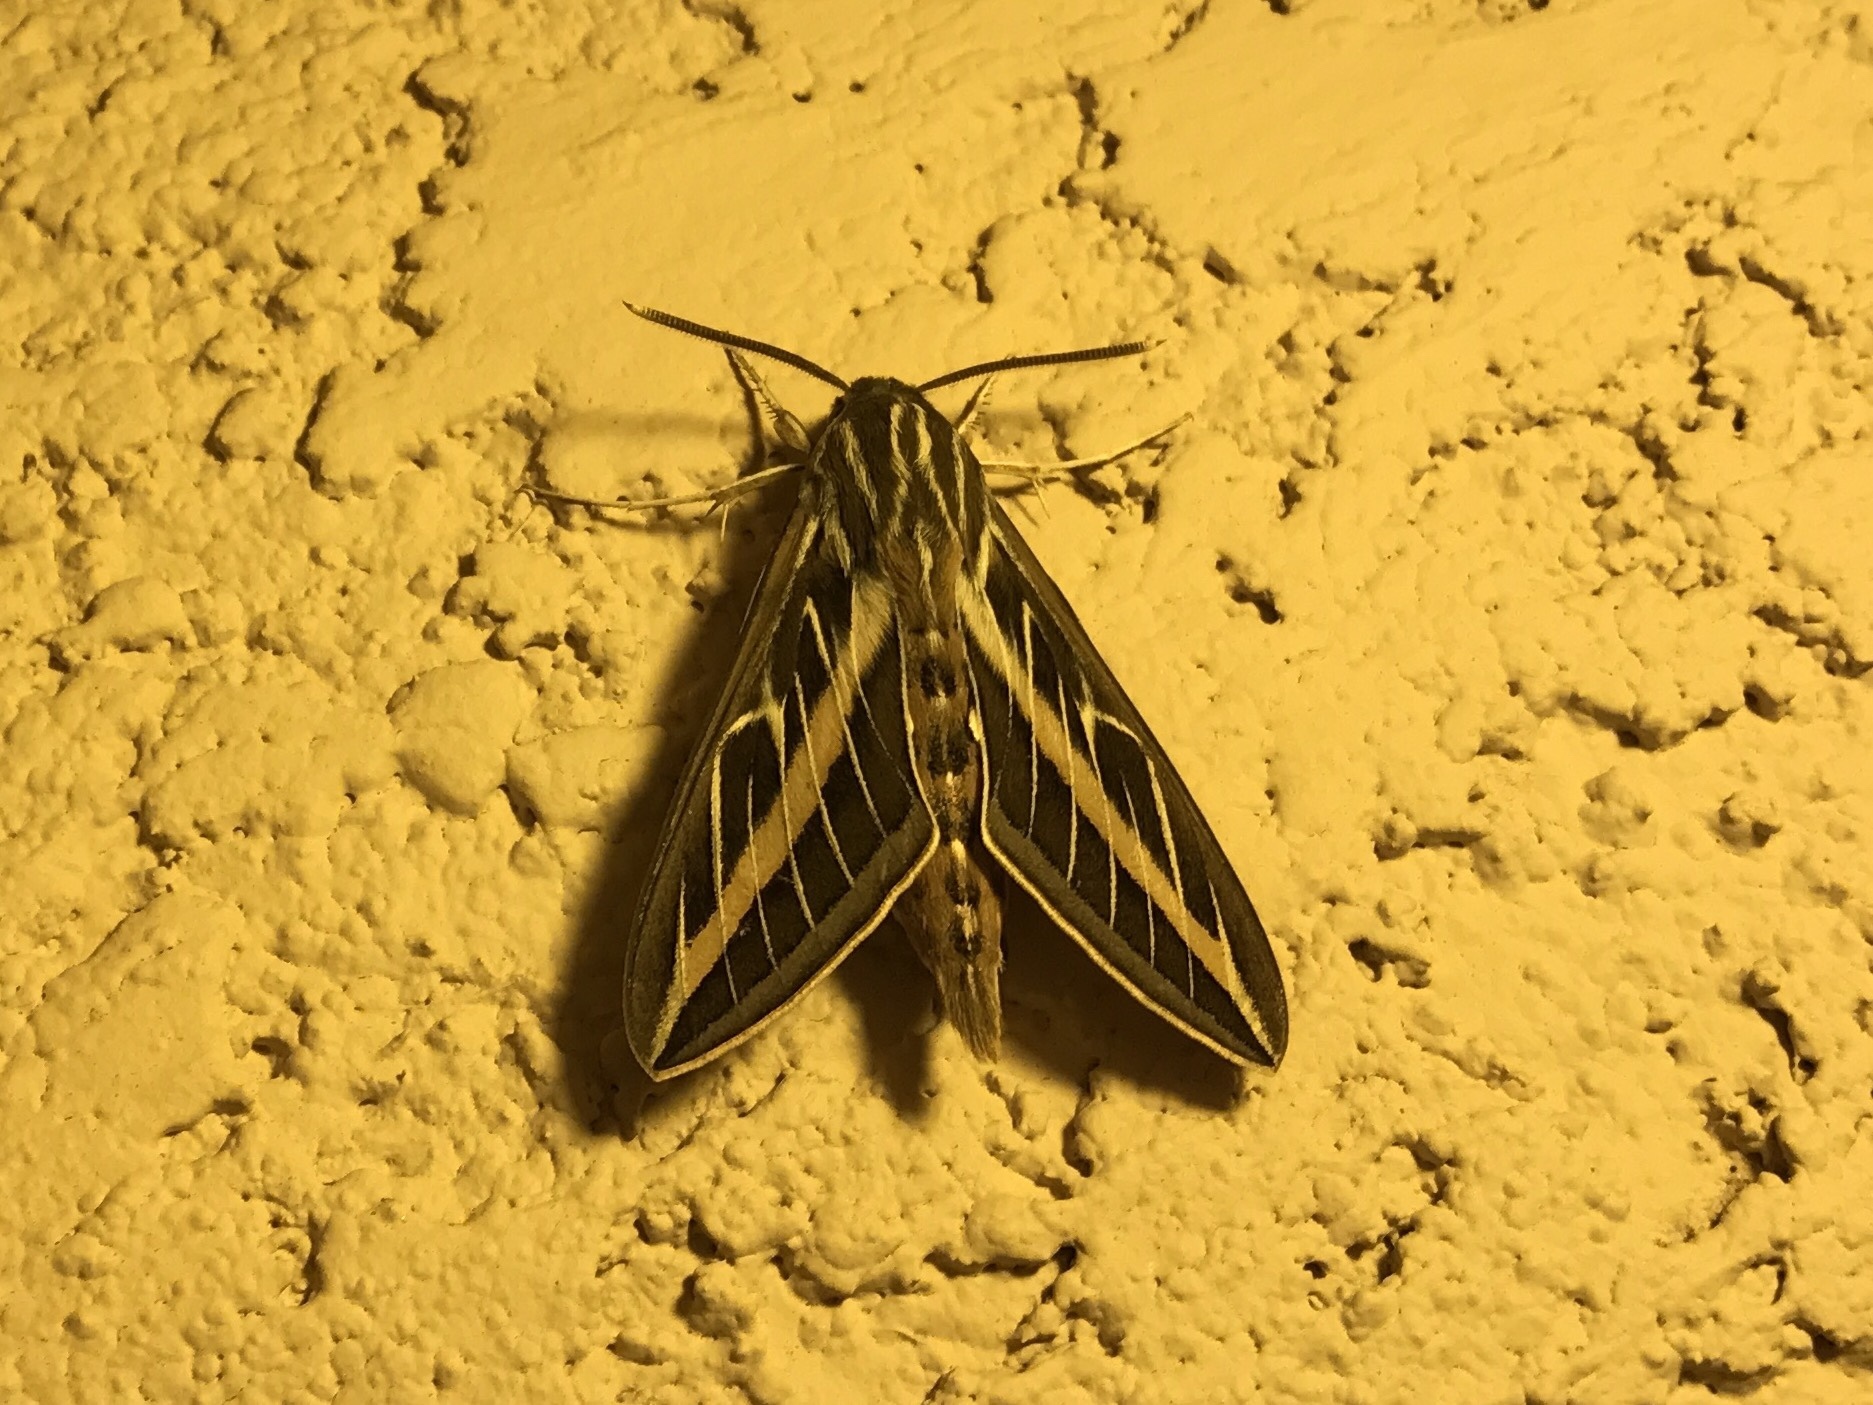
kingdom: Animalia
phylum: Arthropoda
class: Insecta
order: Lepidoptera
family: Sphingidae
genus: Hyles
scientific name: Hyles lineata
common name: White-lined sphinx
